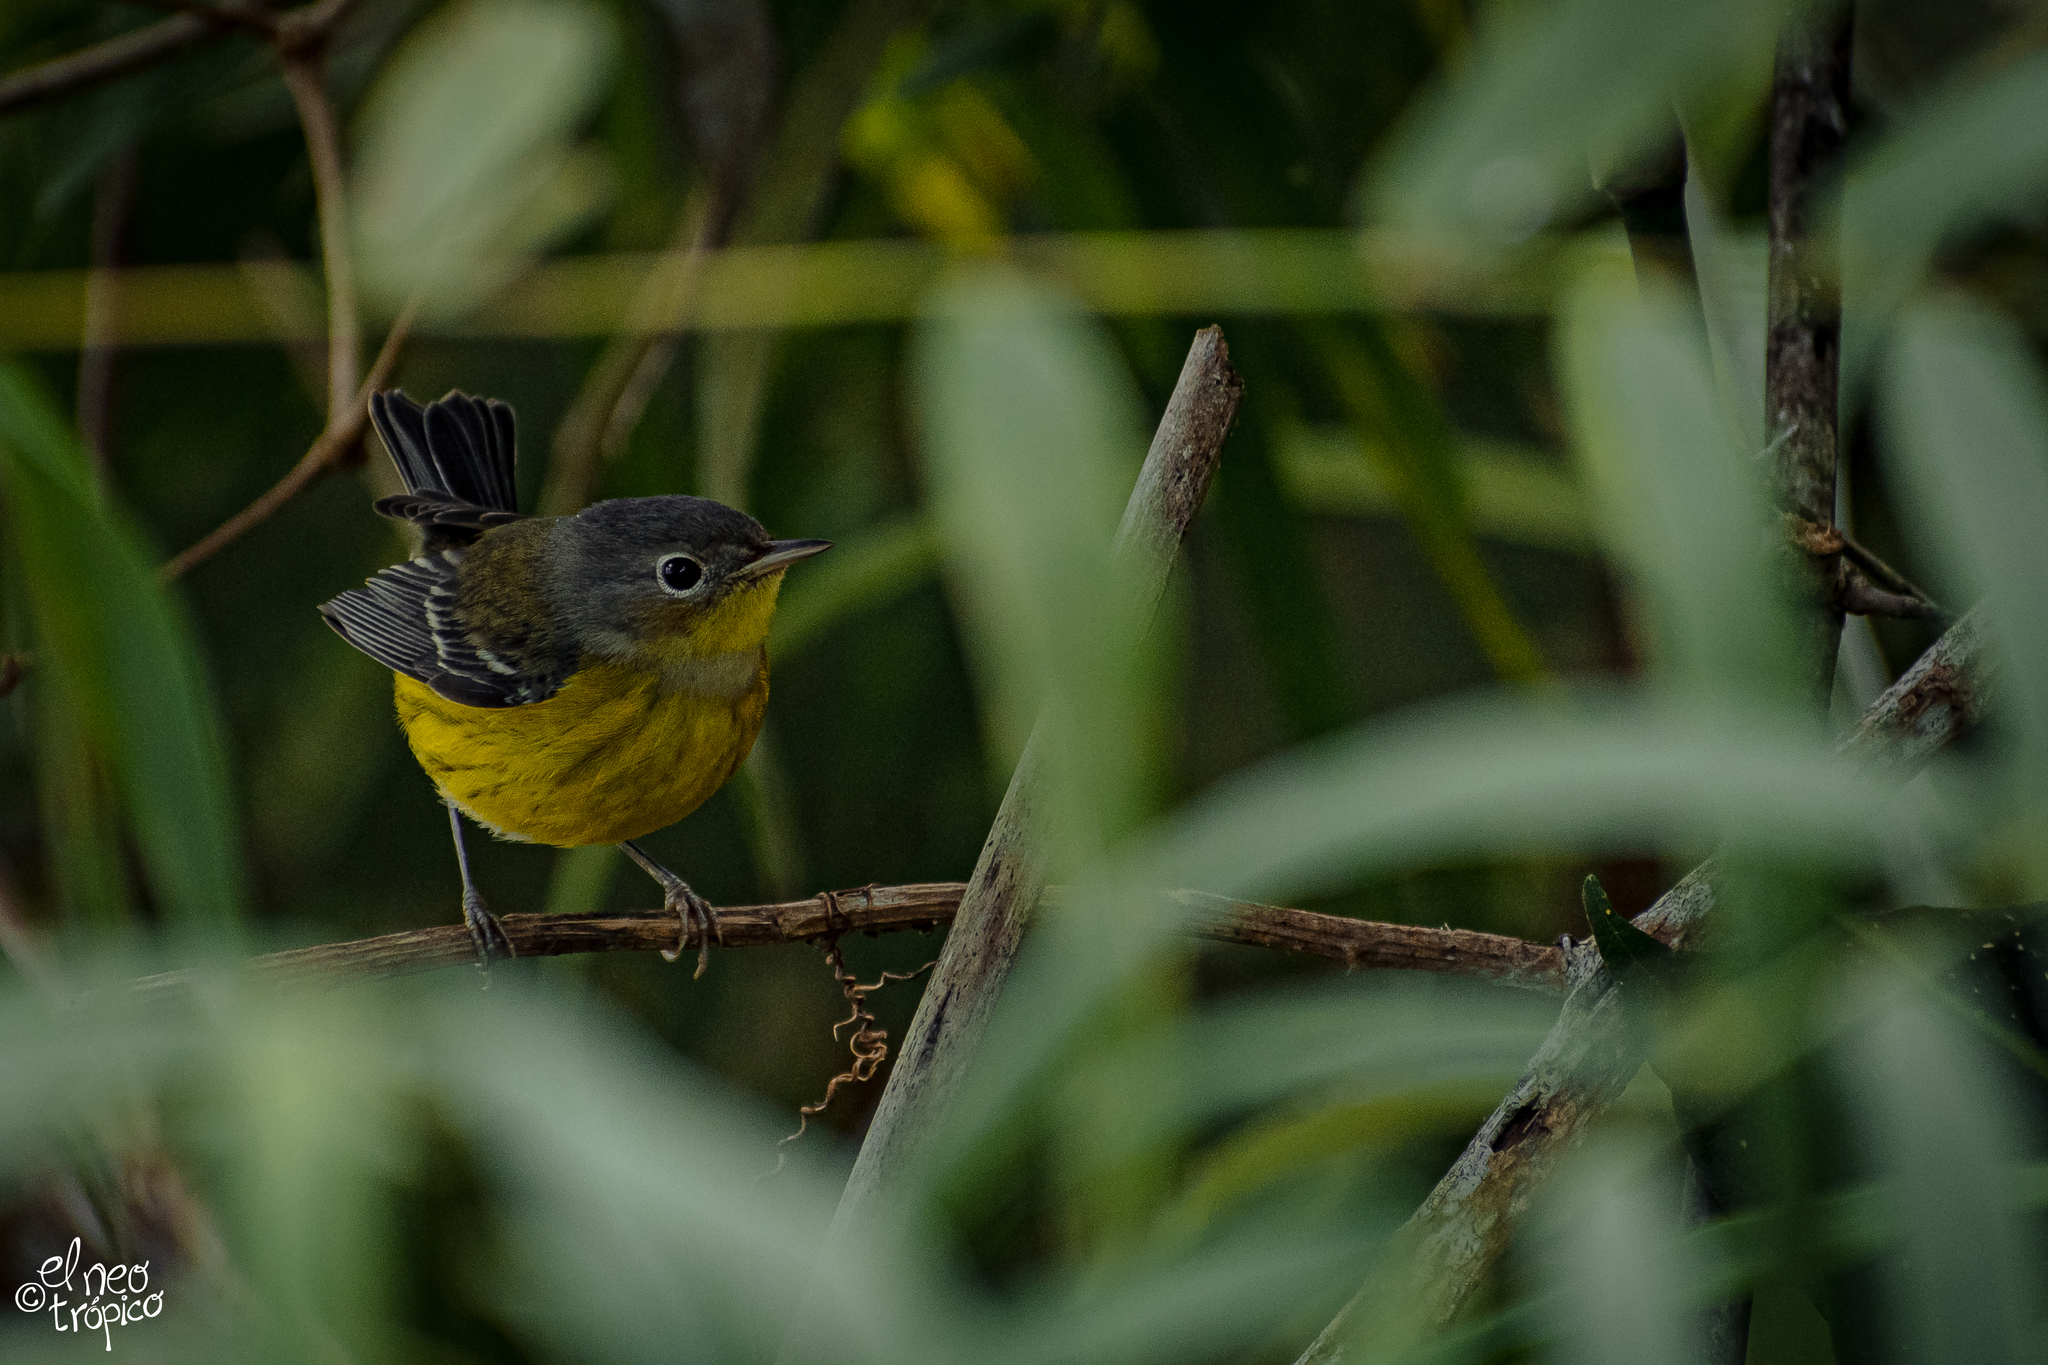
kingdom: Animalia
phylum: Chordata
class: Aves
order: Passeriformes
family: Parulidae
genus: Setophaga
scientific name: Setophaga magnolia
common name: Magnolia warbler
